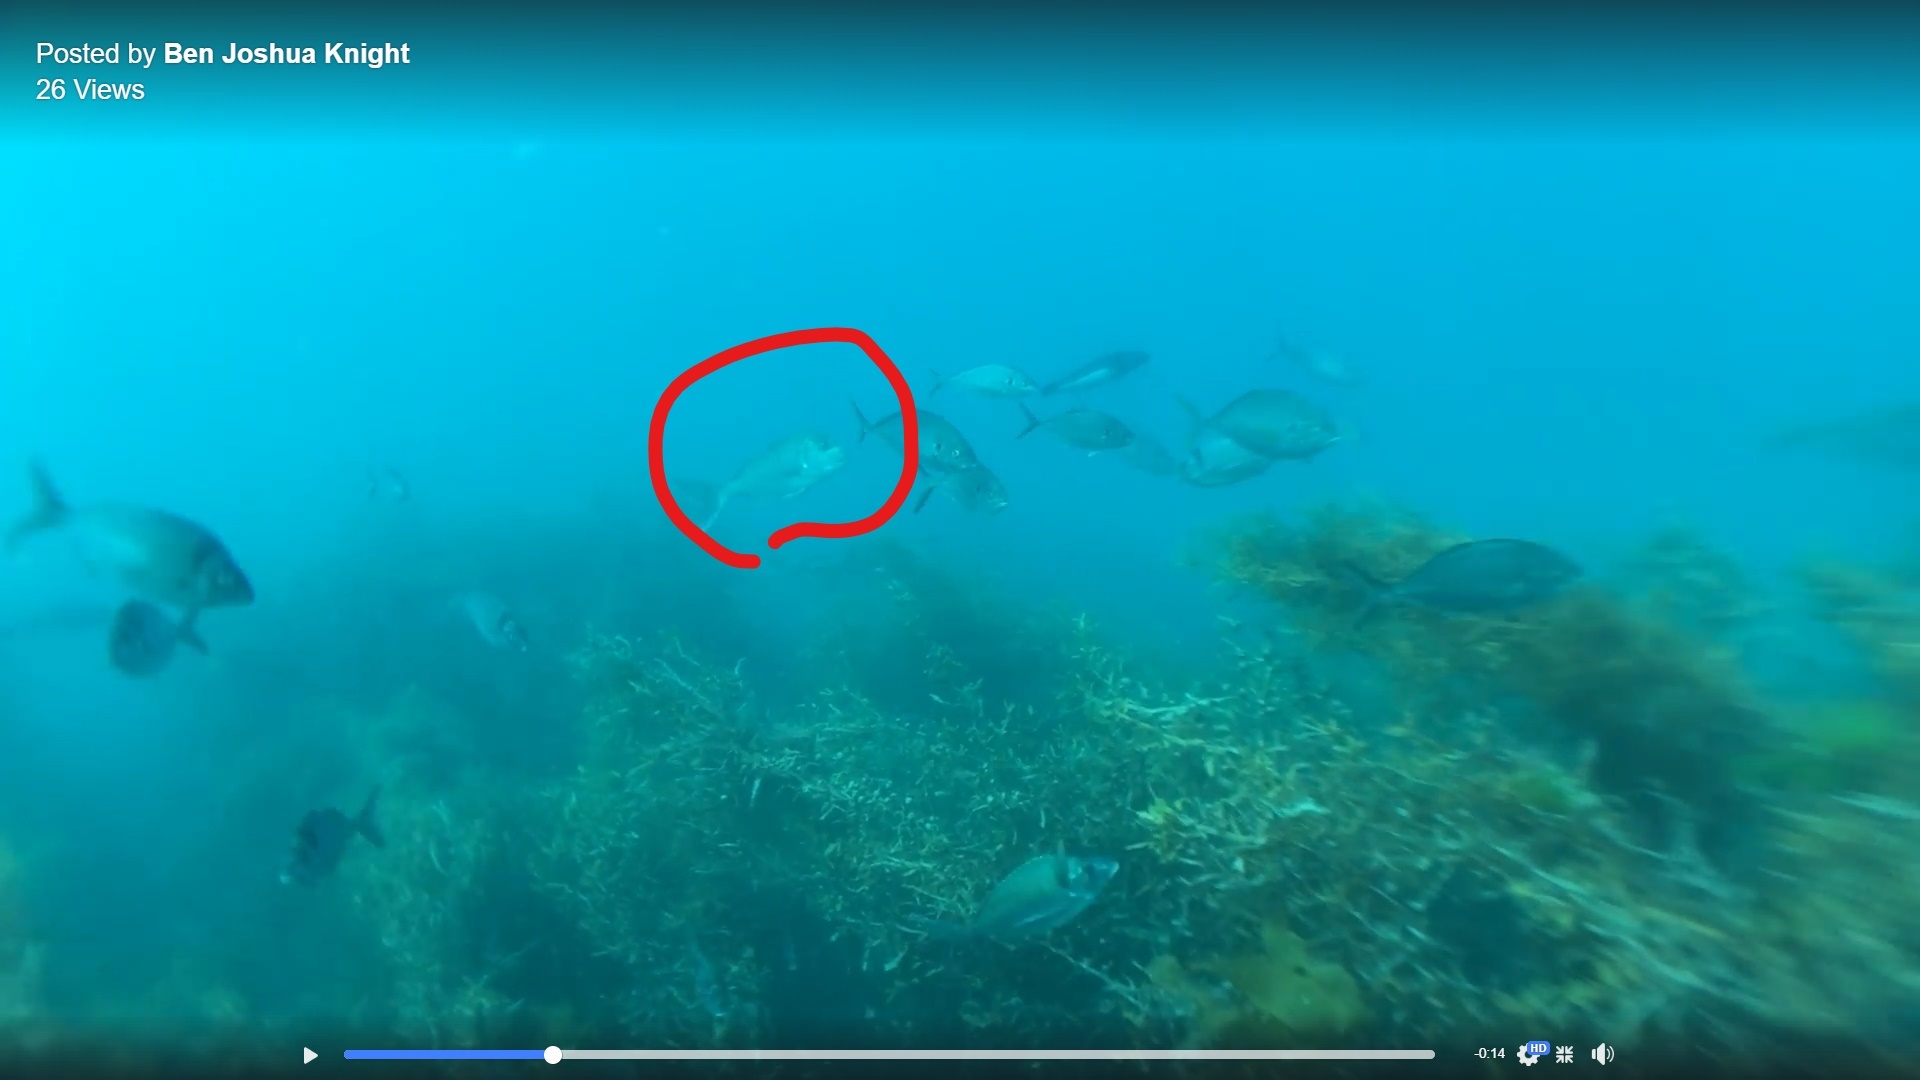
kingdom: Animalia
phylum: Chordata
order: Perciformes
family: Sparidae
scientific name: Sparidae
